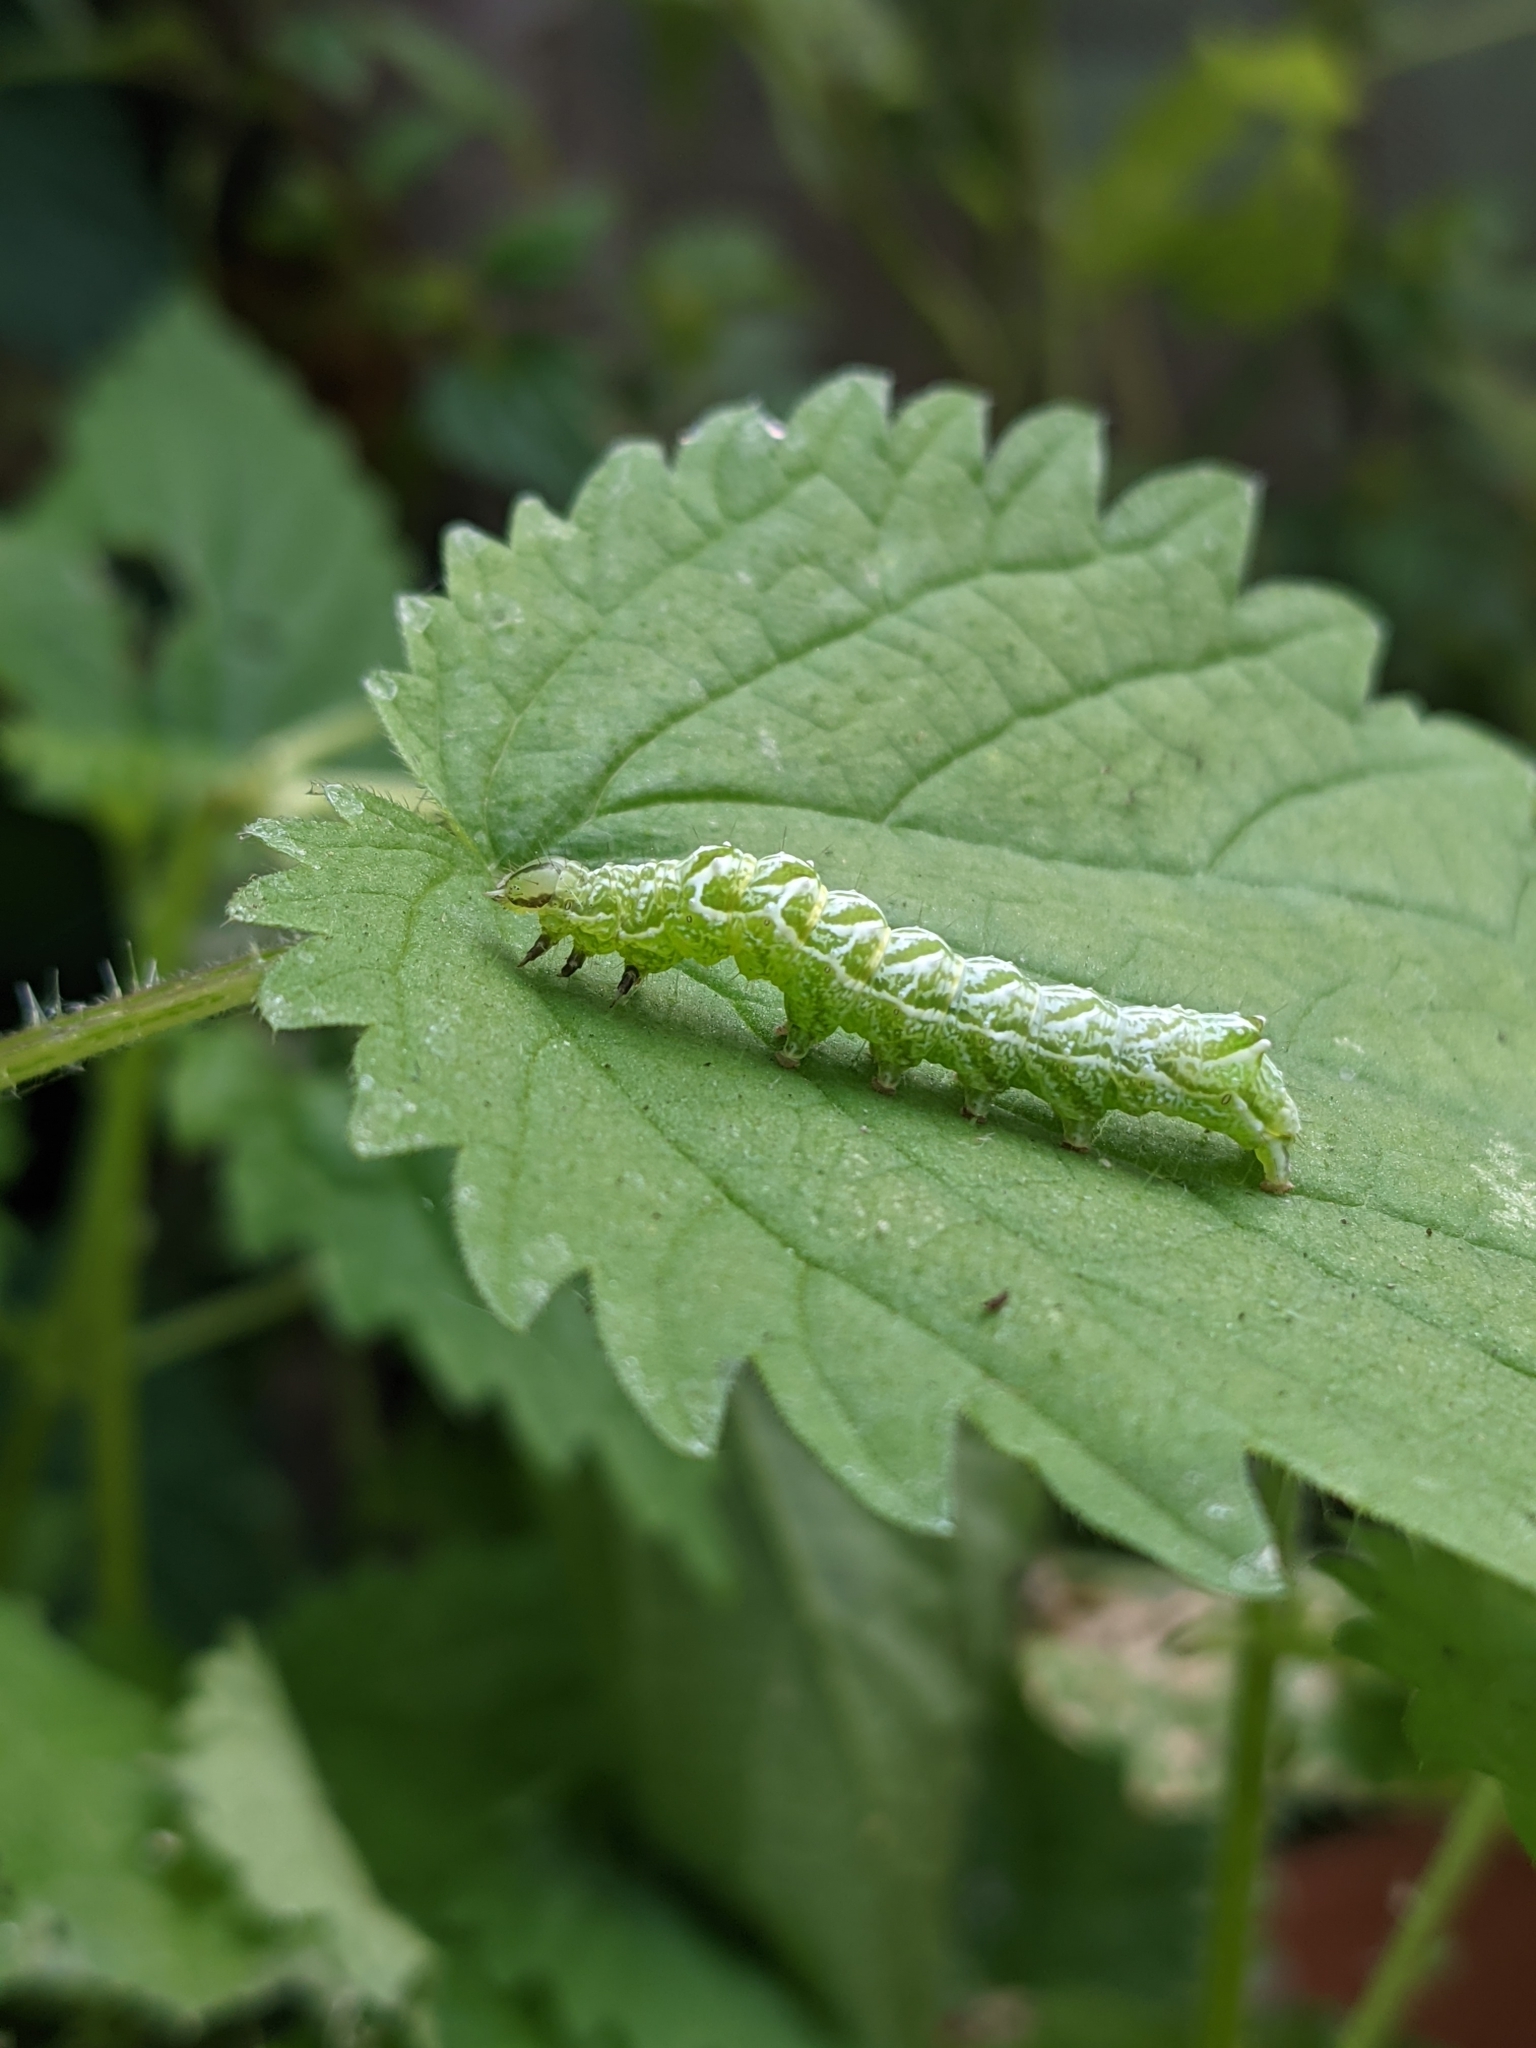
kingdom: Animalia
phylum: Arthropoda
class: Insecta
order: Lepidoptera
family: Noctuidae
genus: Abrostola
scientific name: Abrostola tripartita
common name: Spectacle
